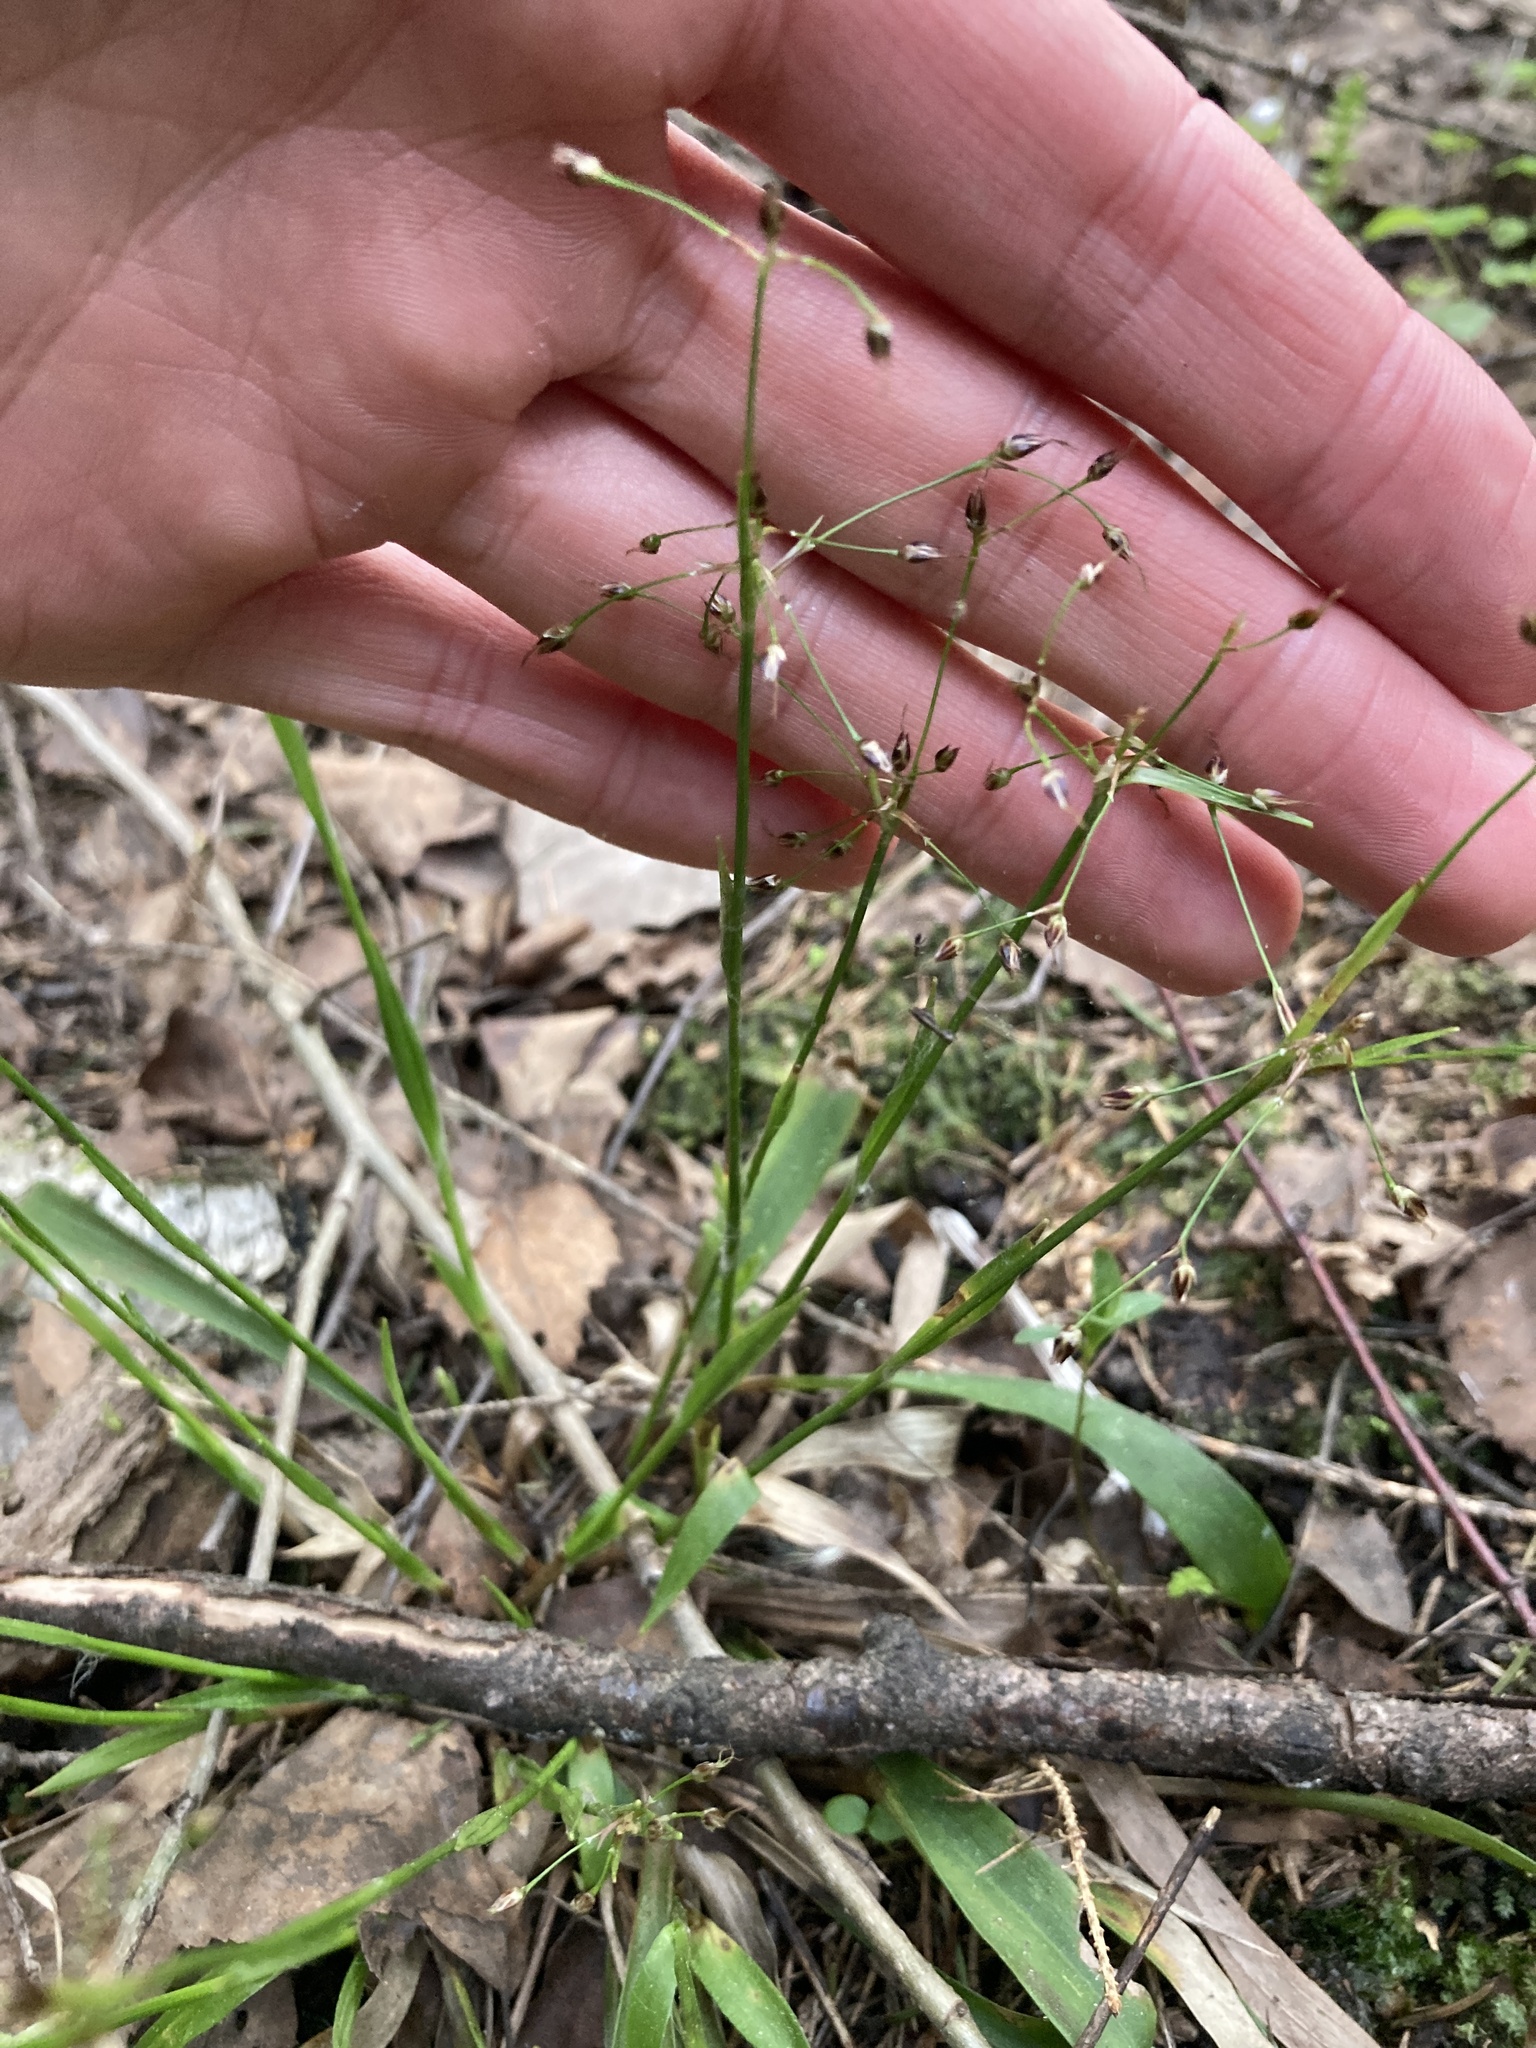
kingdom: Plantae
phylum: Tracheophyta
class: Liliopsida
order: Poales
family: Juncaceae
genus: Luzula
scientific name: Luzula pilosa
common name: Hairy wood-rush
